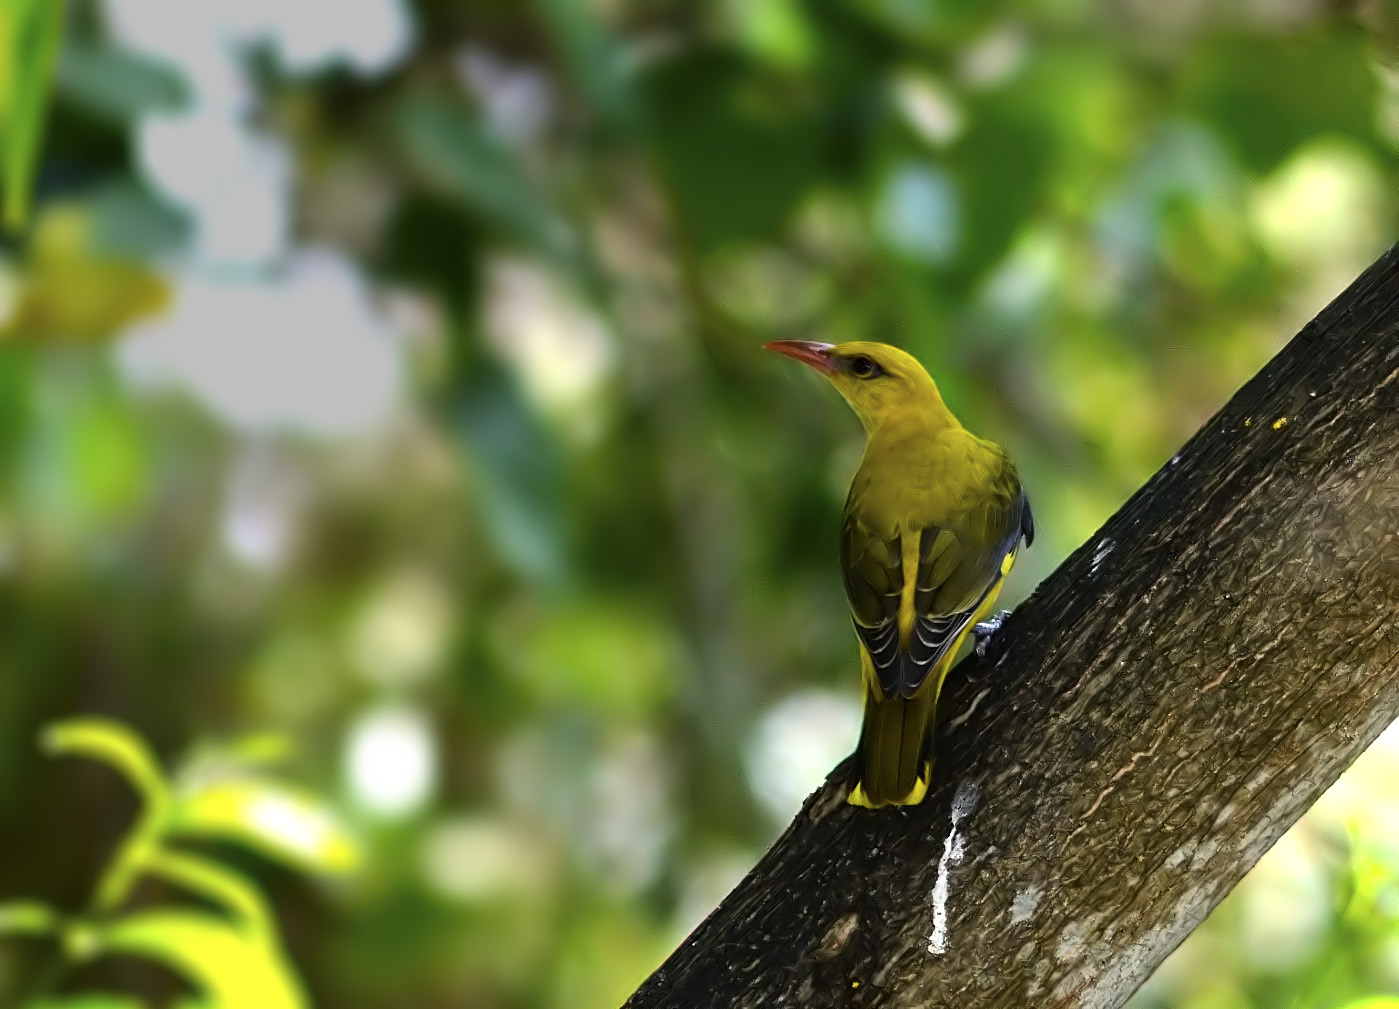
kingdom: Animalia
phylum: Chordata
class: Aves
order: Passeriformes
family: Oriolidae
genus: Oriolus
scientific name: Oriolus kundoo
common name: Indian golden oriole
